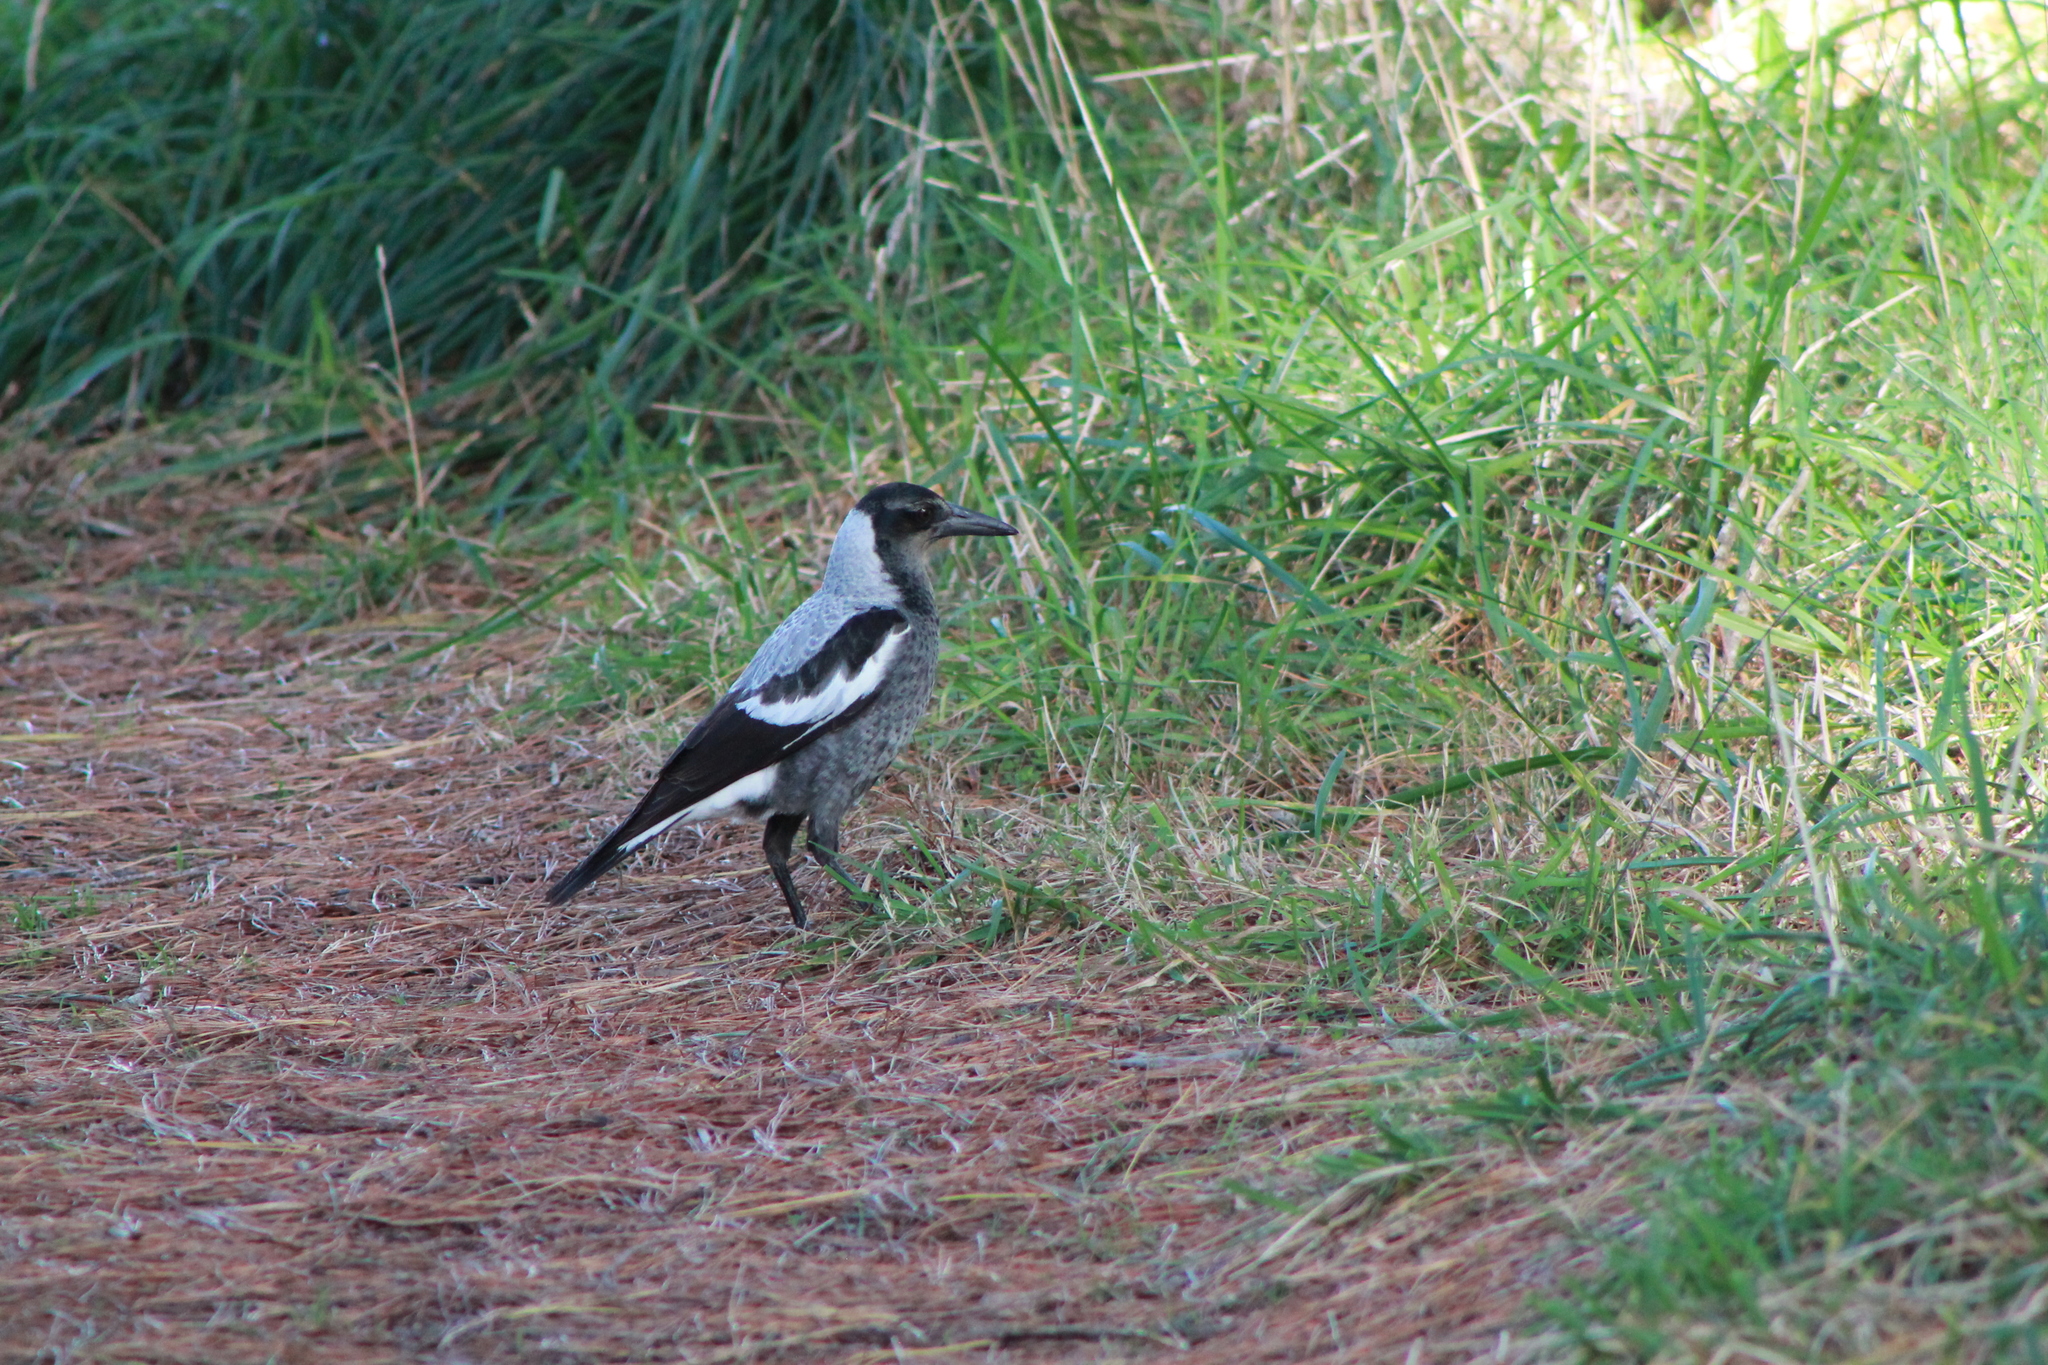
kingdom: Animalia
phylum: Chordata
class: Aves
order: Passeriformes
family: Cracticidae
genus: Gymnorhina
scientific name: Gymnorhina tibicen
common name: Australian magpie
